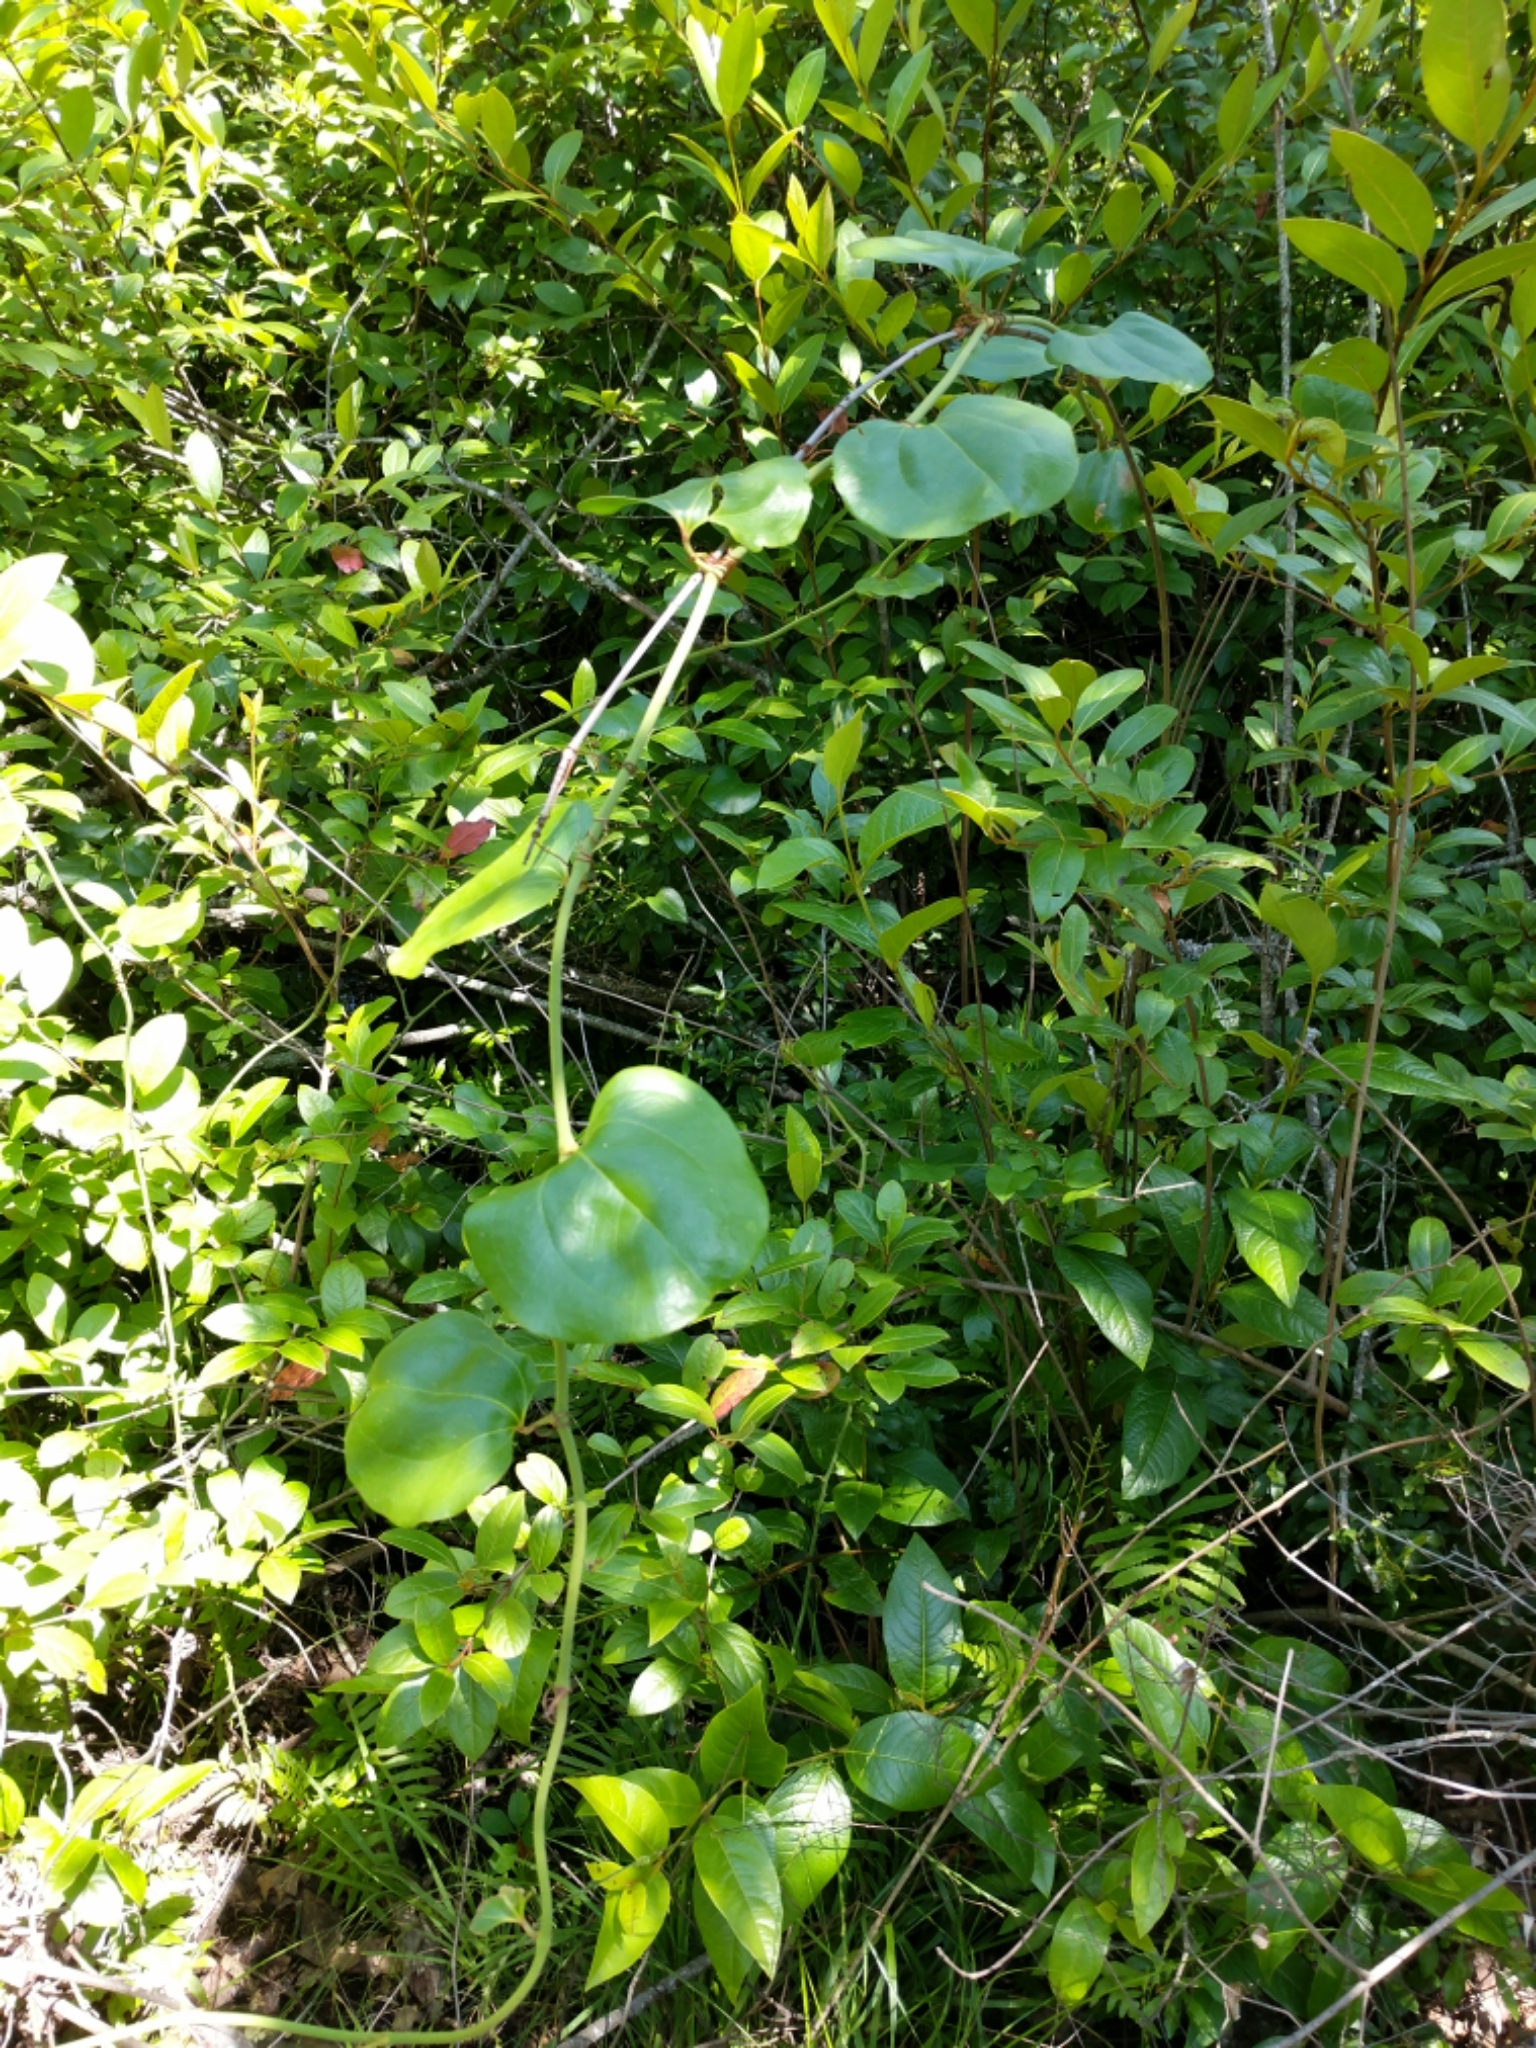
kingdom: Plantae
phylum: Tracheophyta
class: Liliopsida
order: Liliales
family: Smilacaceae
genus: Smilax
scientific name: Smilax rotundifolia
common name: Bullbriar
